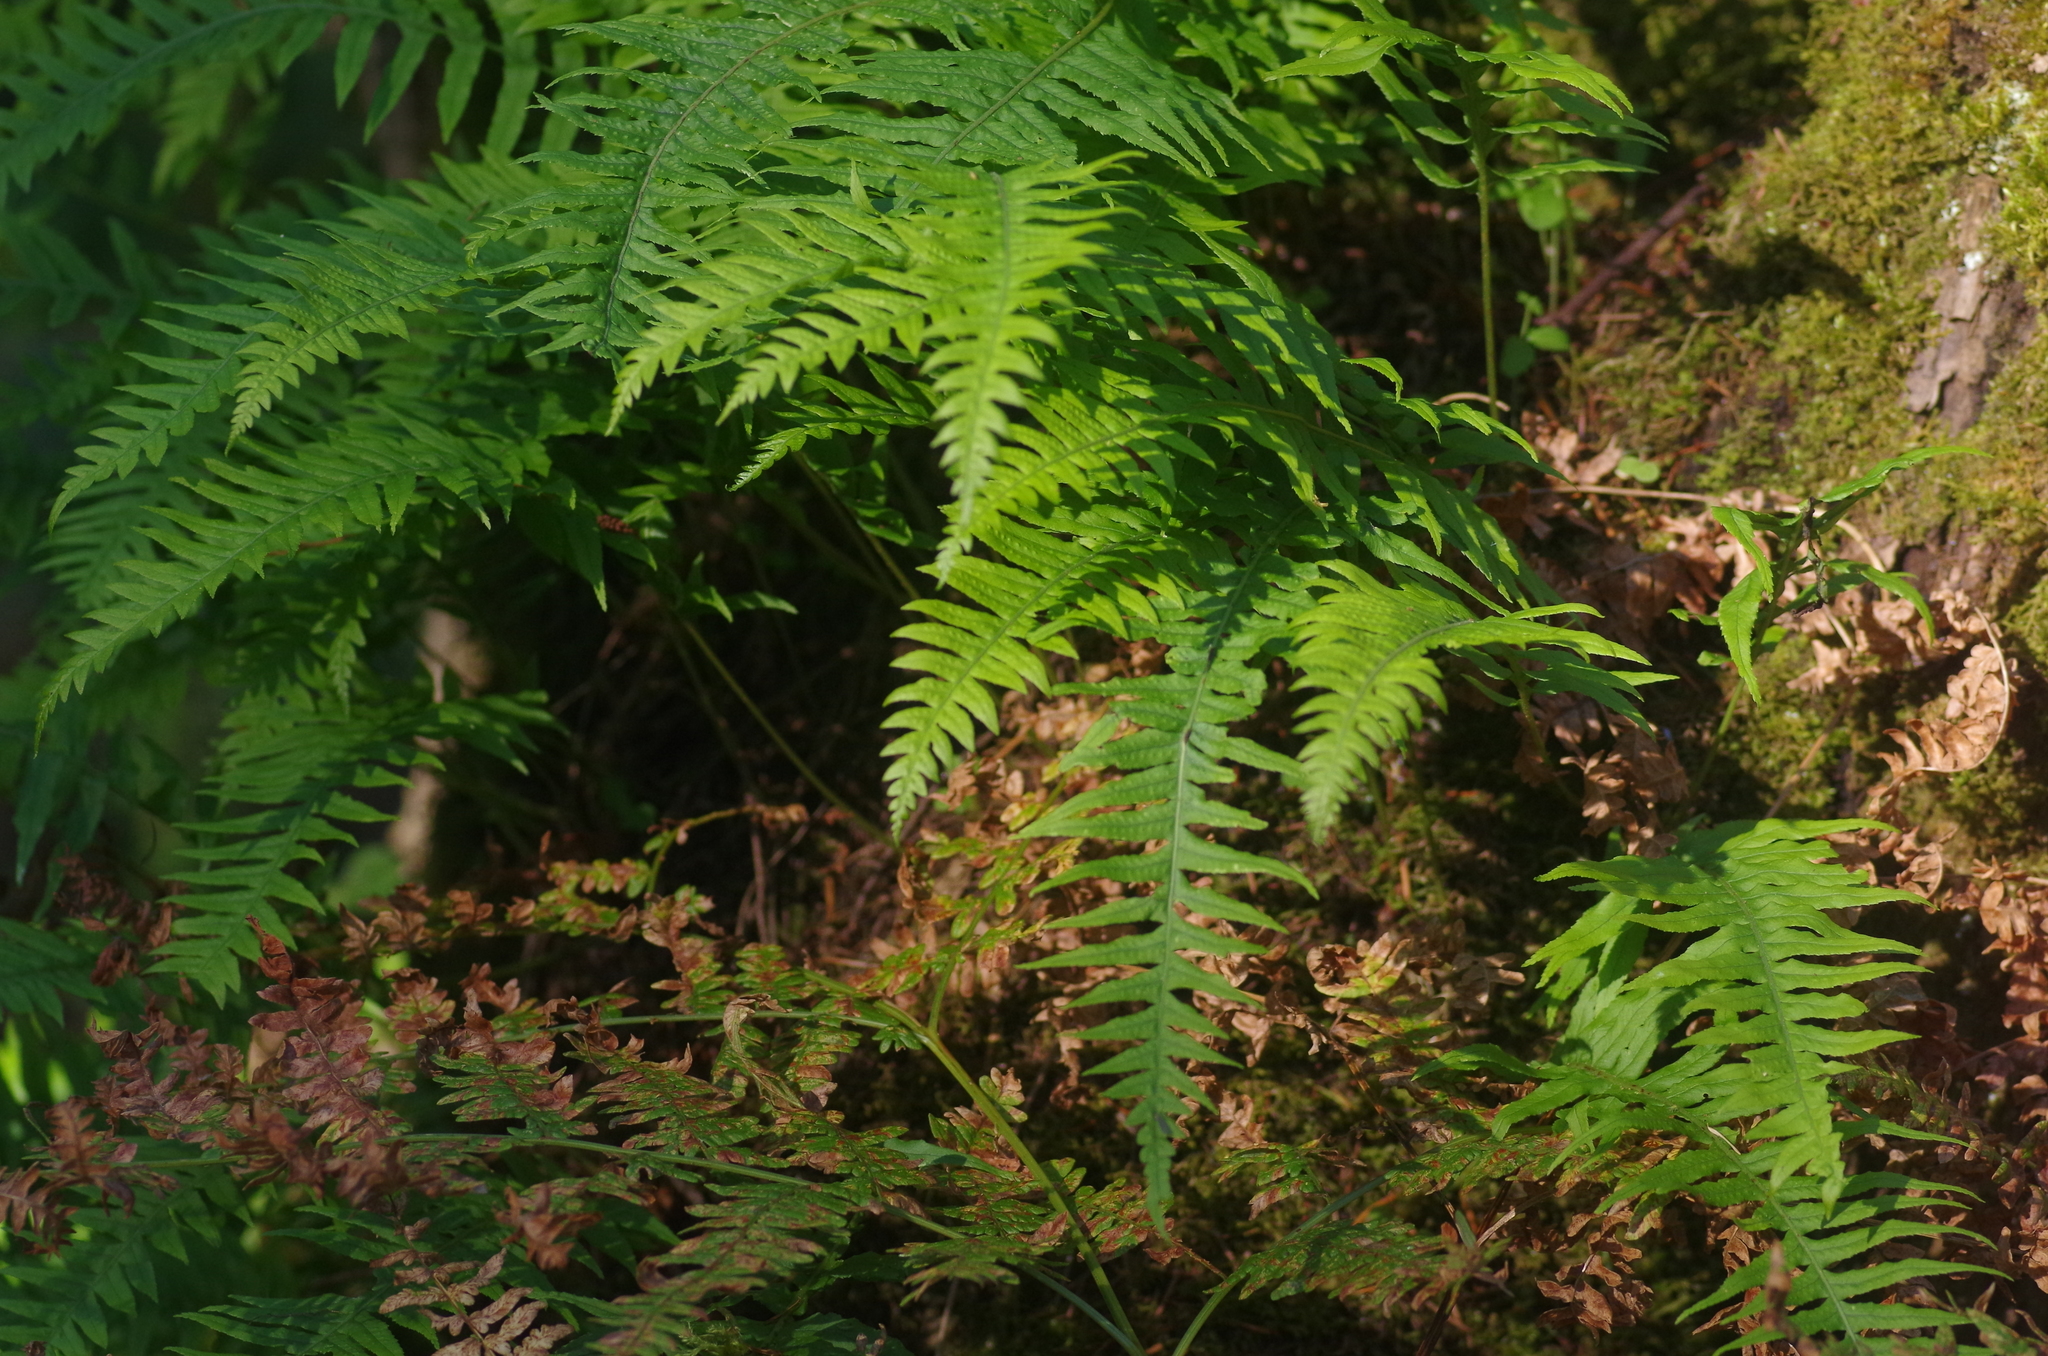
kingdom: Plantae
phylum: Tracheophyta
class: Polypodiopsida
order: Polypodiales
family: Polypodiaceae
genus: Polypodium
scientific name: Polypodium glycyrrhiza
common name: Licorice fern
